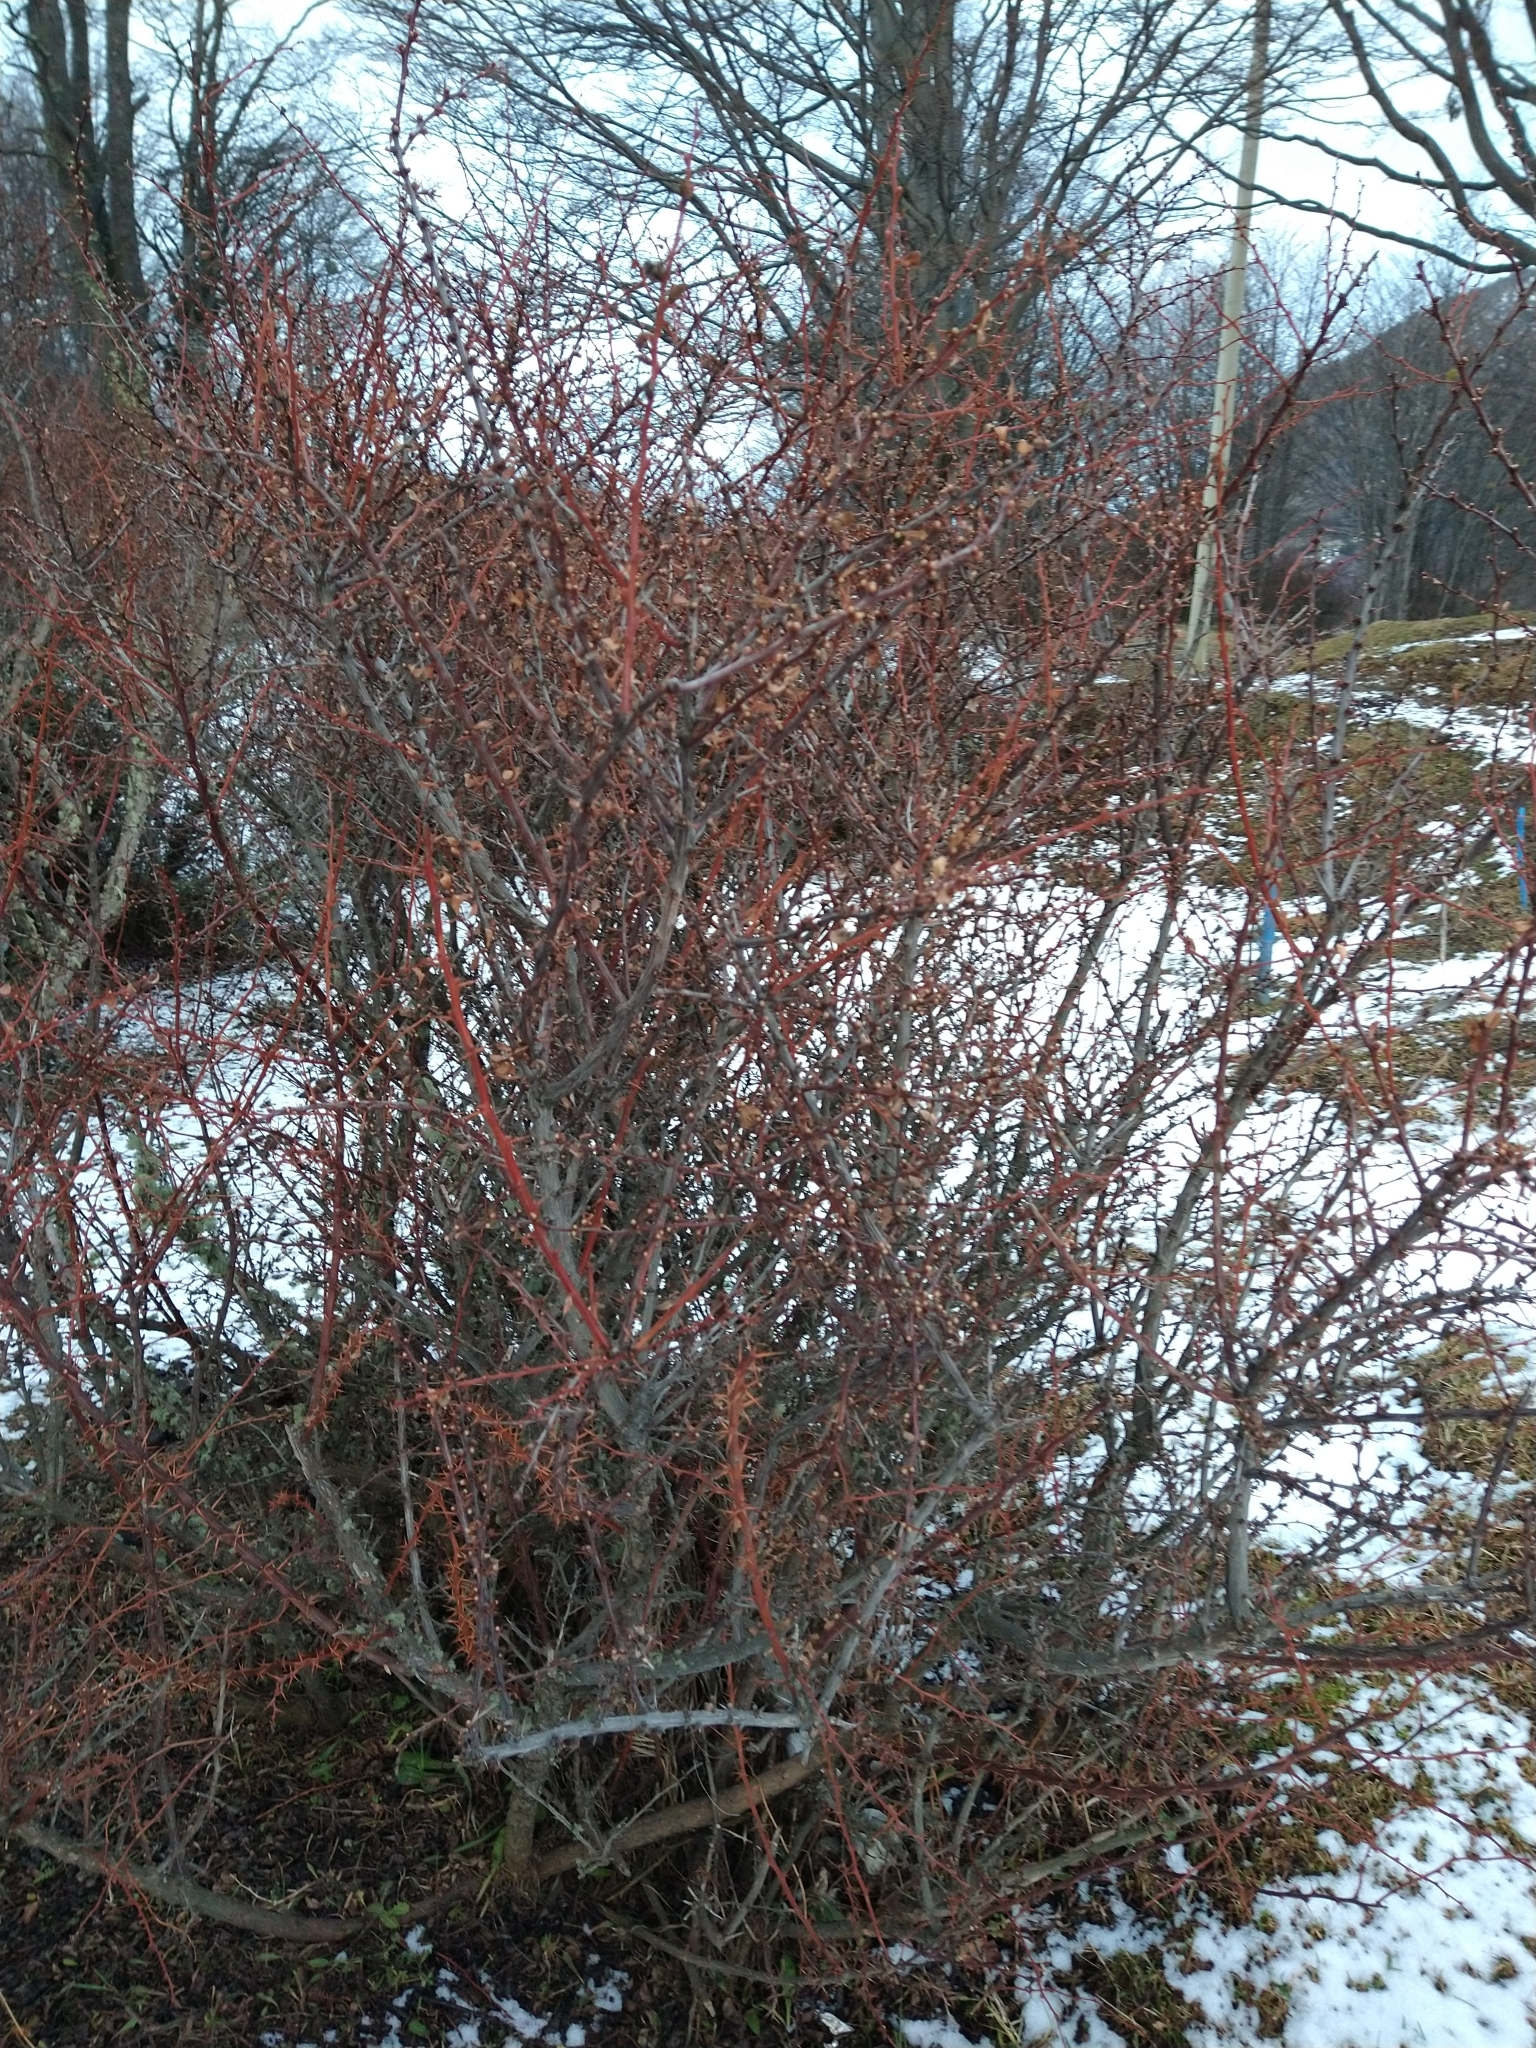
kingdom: Plantae
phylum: Tracheophyta
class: Magnoliopsida
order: Ranunculales
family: Berberidaceae
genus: Berberis
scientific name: Berberis microphylla
